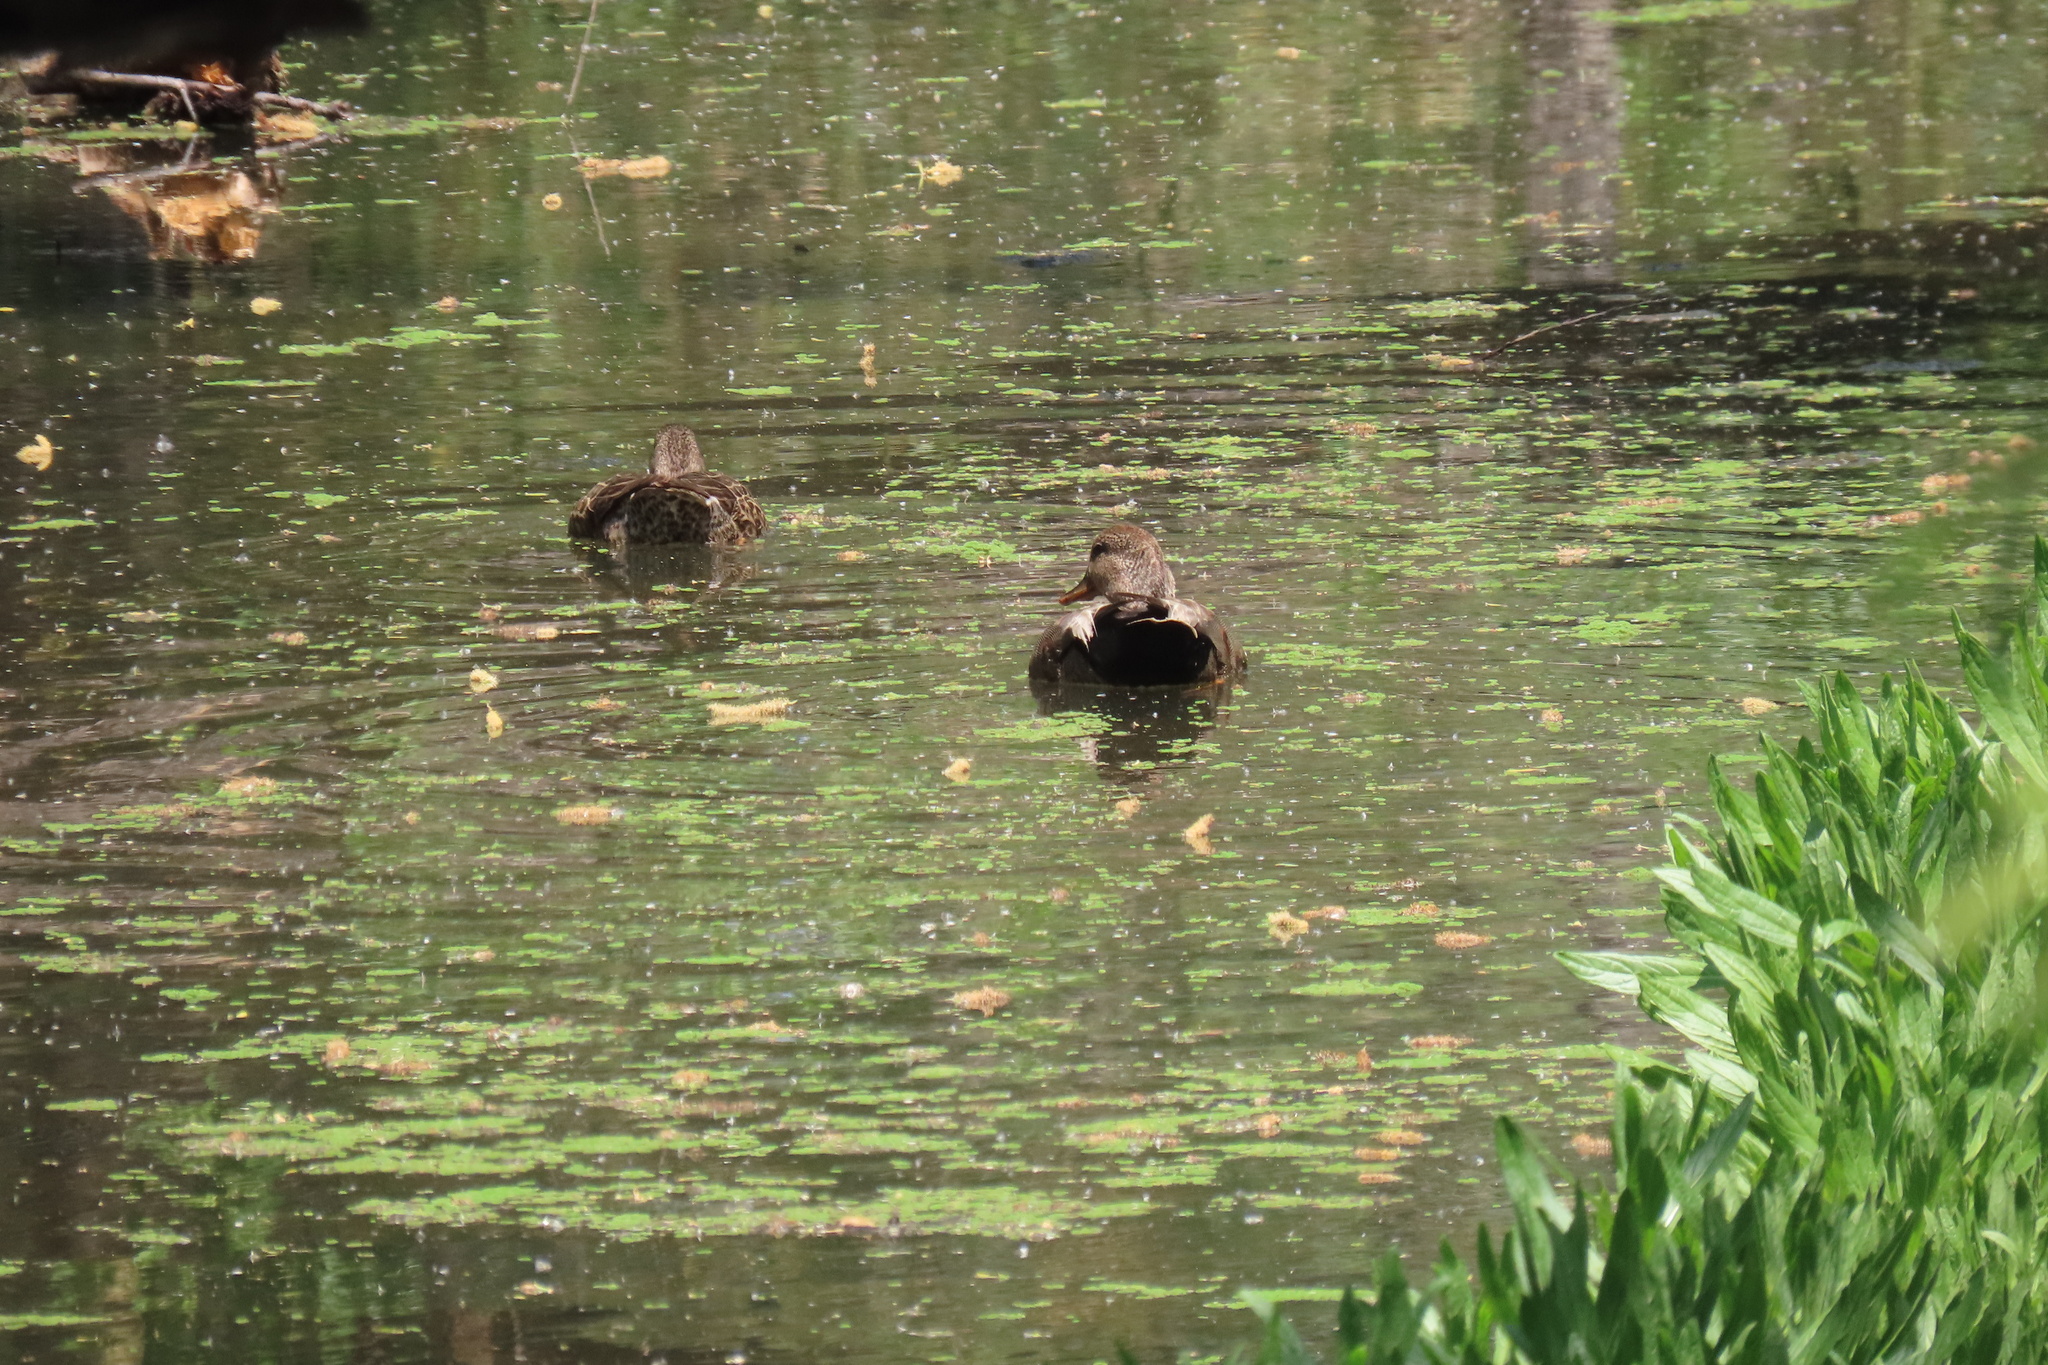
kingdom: Animalia
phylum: Chordata
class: Aves
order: Anseriformes
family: Anatidae
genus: Mareca
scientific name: Mareca strepera
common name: Gadwall
